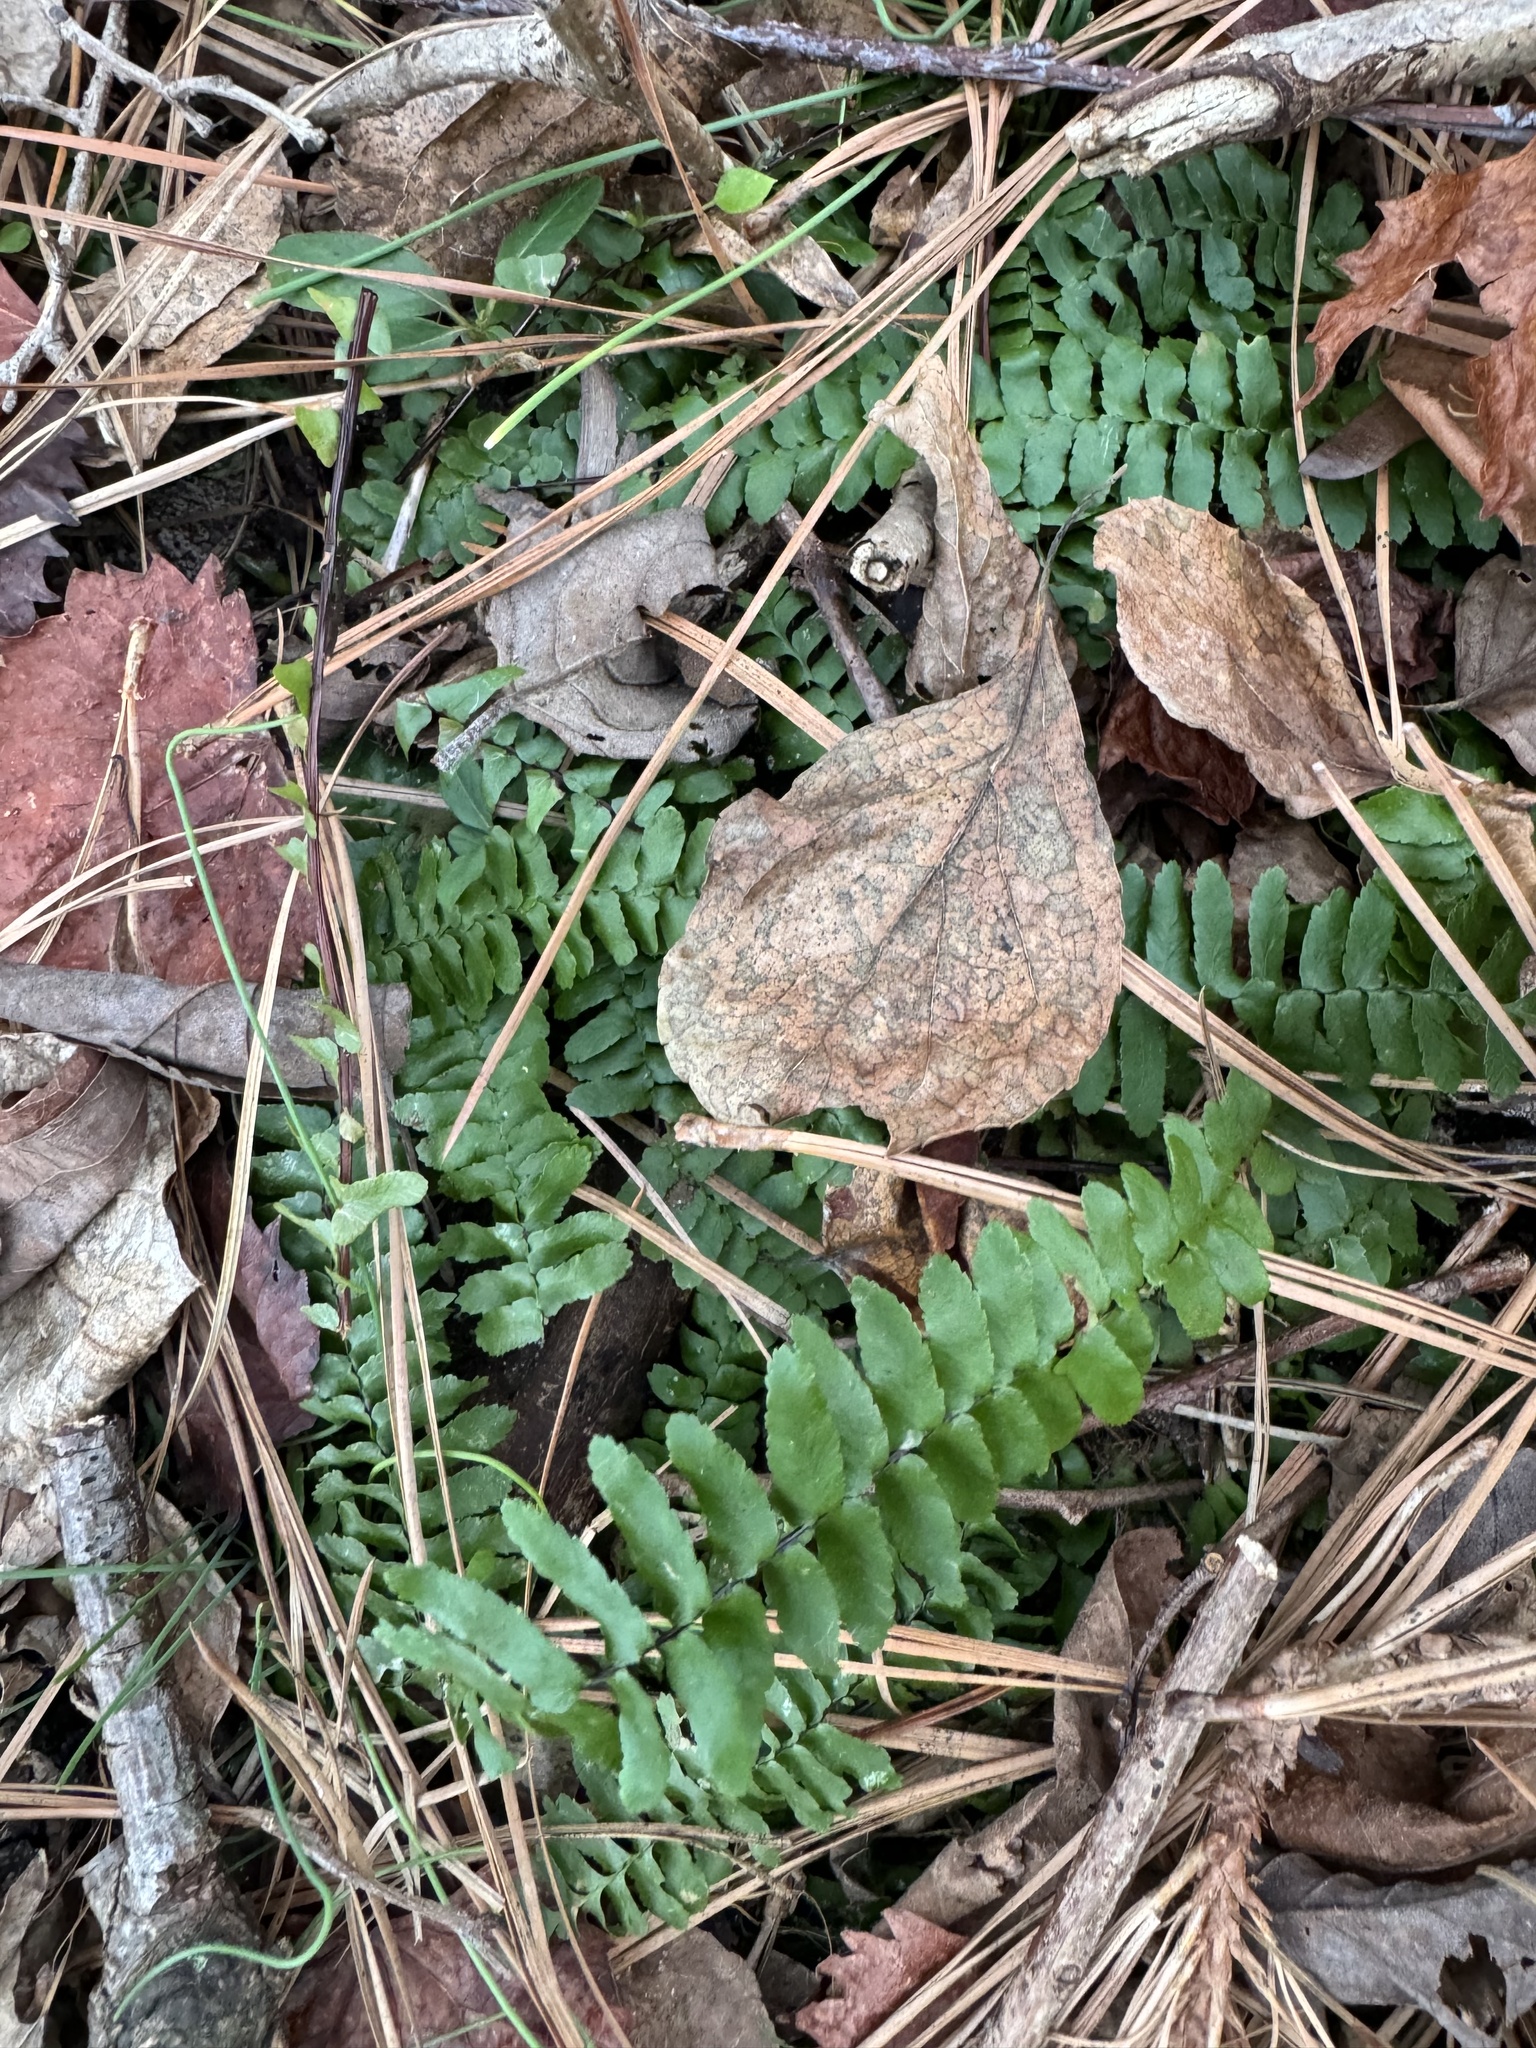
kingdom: Plantae
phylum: Tracheophyta
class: Polypodiopsida
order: Polypodiales
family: Aspleniaceae
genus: Asplenium
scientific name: Asplenium platyneuron
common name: Ebony spleenwort
